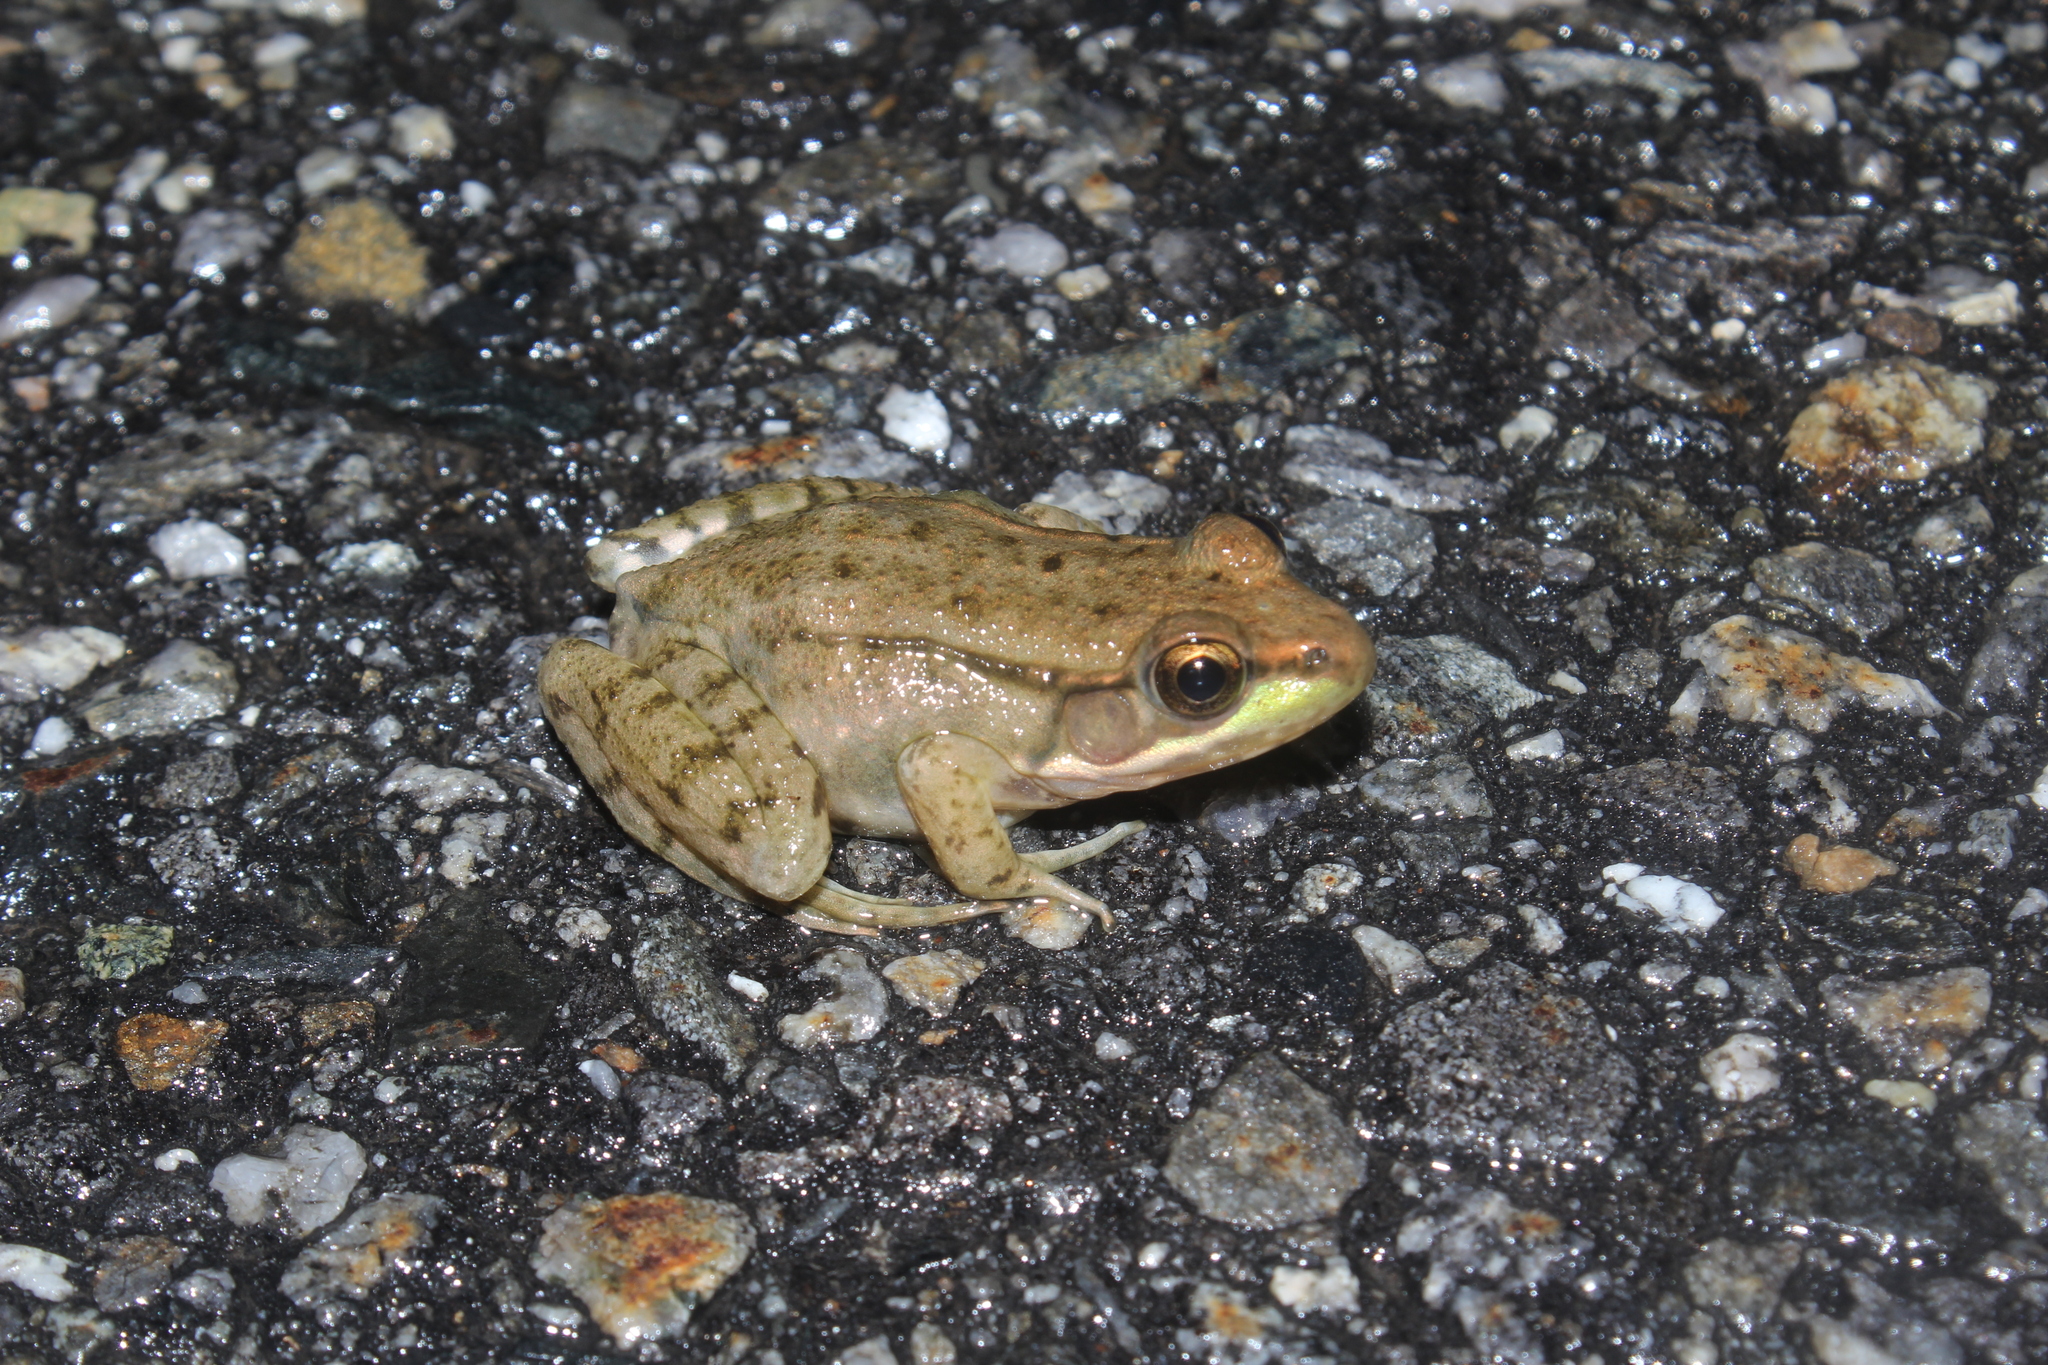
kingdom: Animalia
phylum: Chordata
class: Amphibia
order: Anura
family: Ranidae
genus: Lithobates
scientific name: Lithobates clamitans
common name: Green frog
